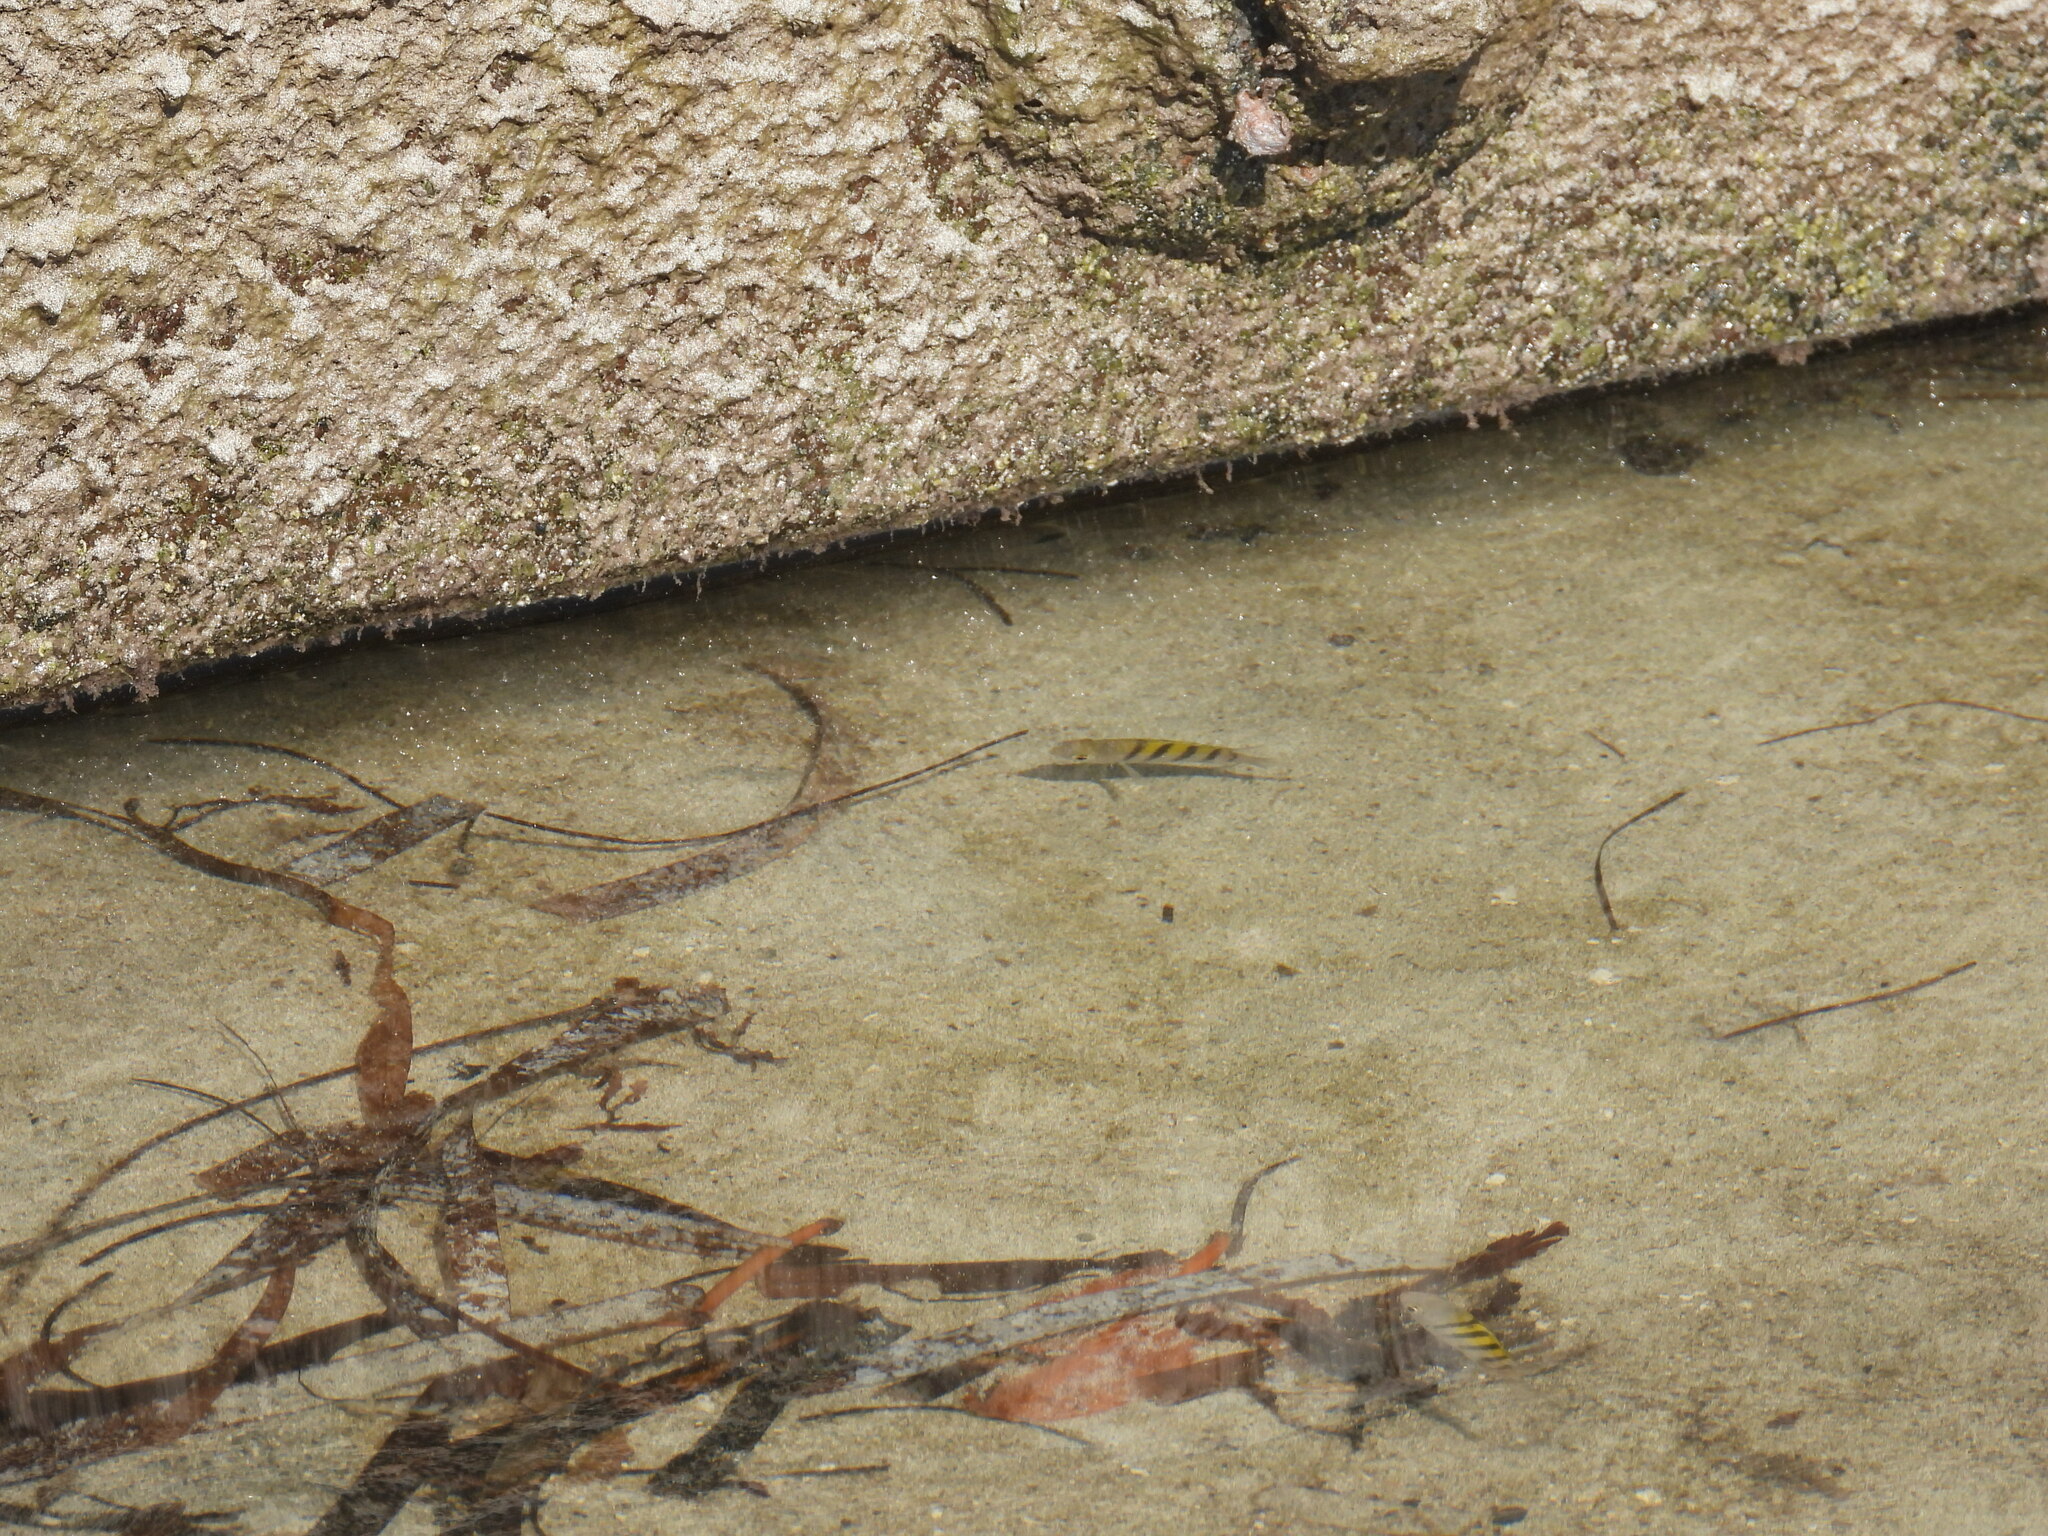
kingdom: Animalia
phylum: Chordata
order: Perciformes
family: Pomacentridae
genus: Abudefduf
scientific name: Abudefduf saxatilis
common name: Sergeant major
